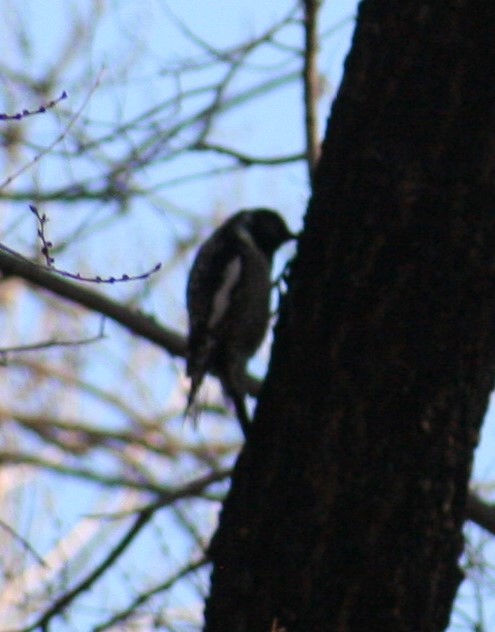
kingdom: Animalia
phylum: Chordata
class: Aves
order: Piciformes
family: Picidae
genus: Sphyrapicus
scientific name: Sphyrapicus varius
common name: Yellow-bellied sapsucker
